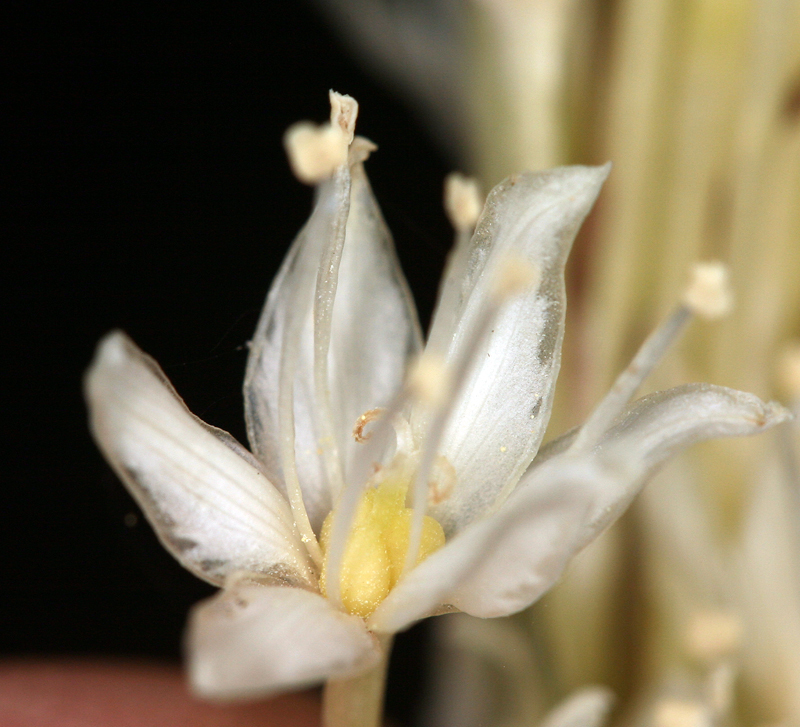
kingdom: Plantae
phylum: Tracheophyta
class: Liliopsida
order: Liliales
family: Melanthiaceae
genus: Xerophyllum
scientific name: Xerophyllum tenax
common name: Bear-grass
